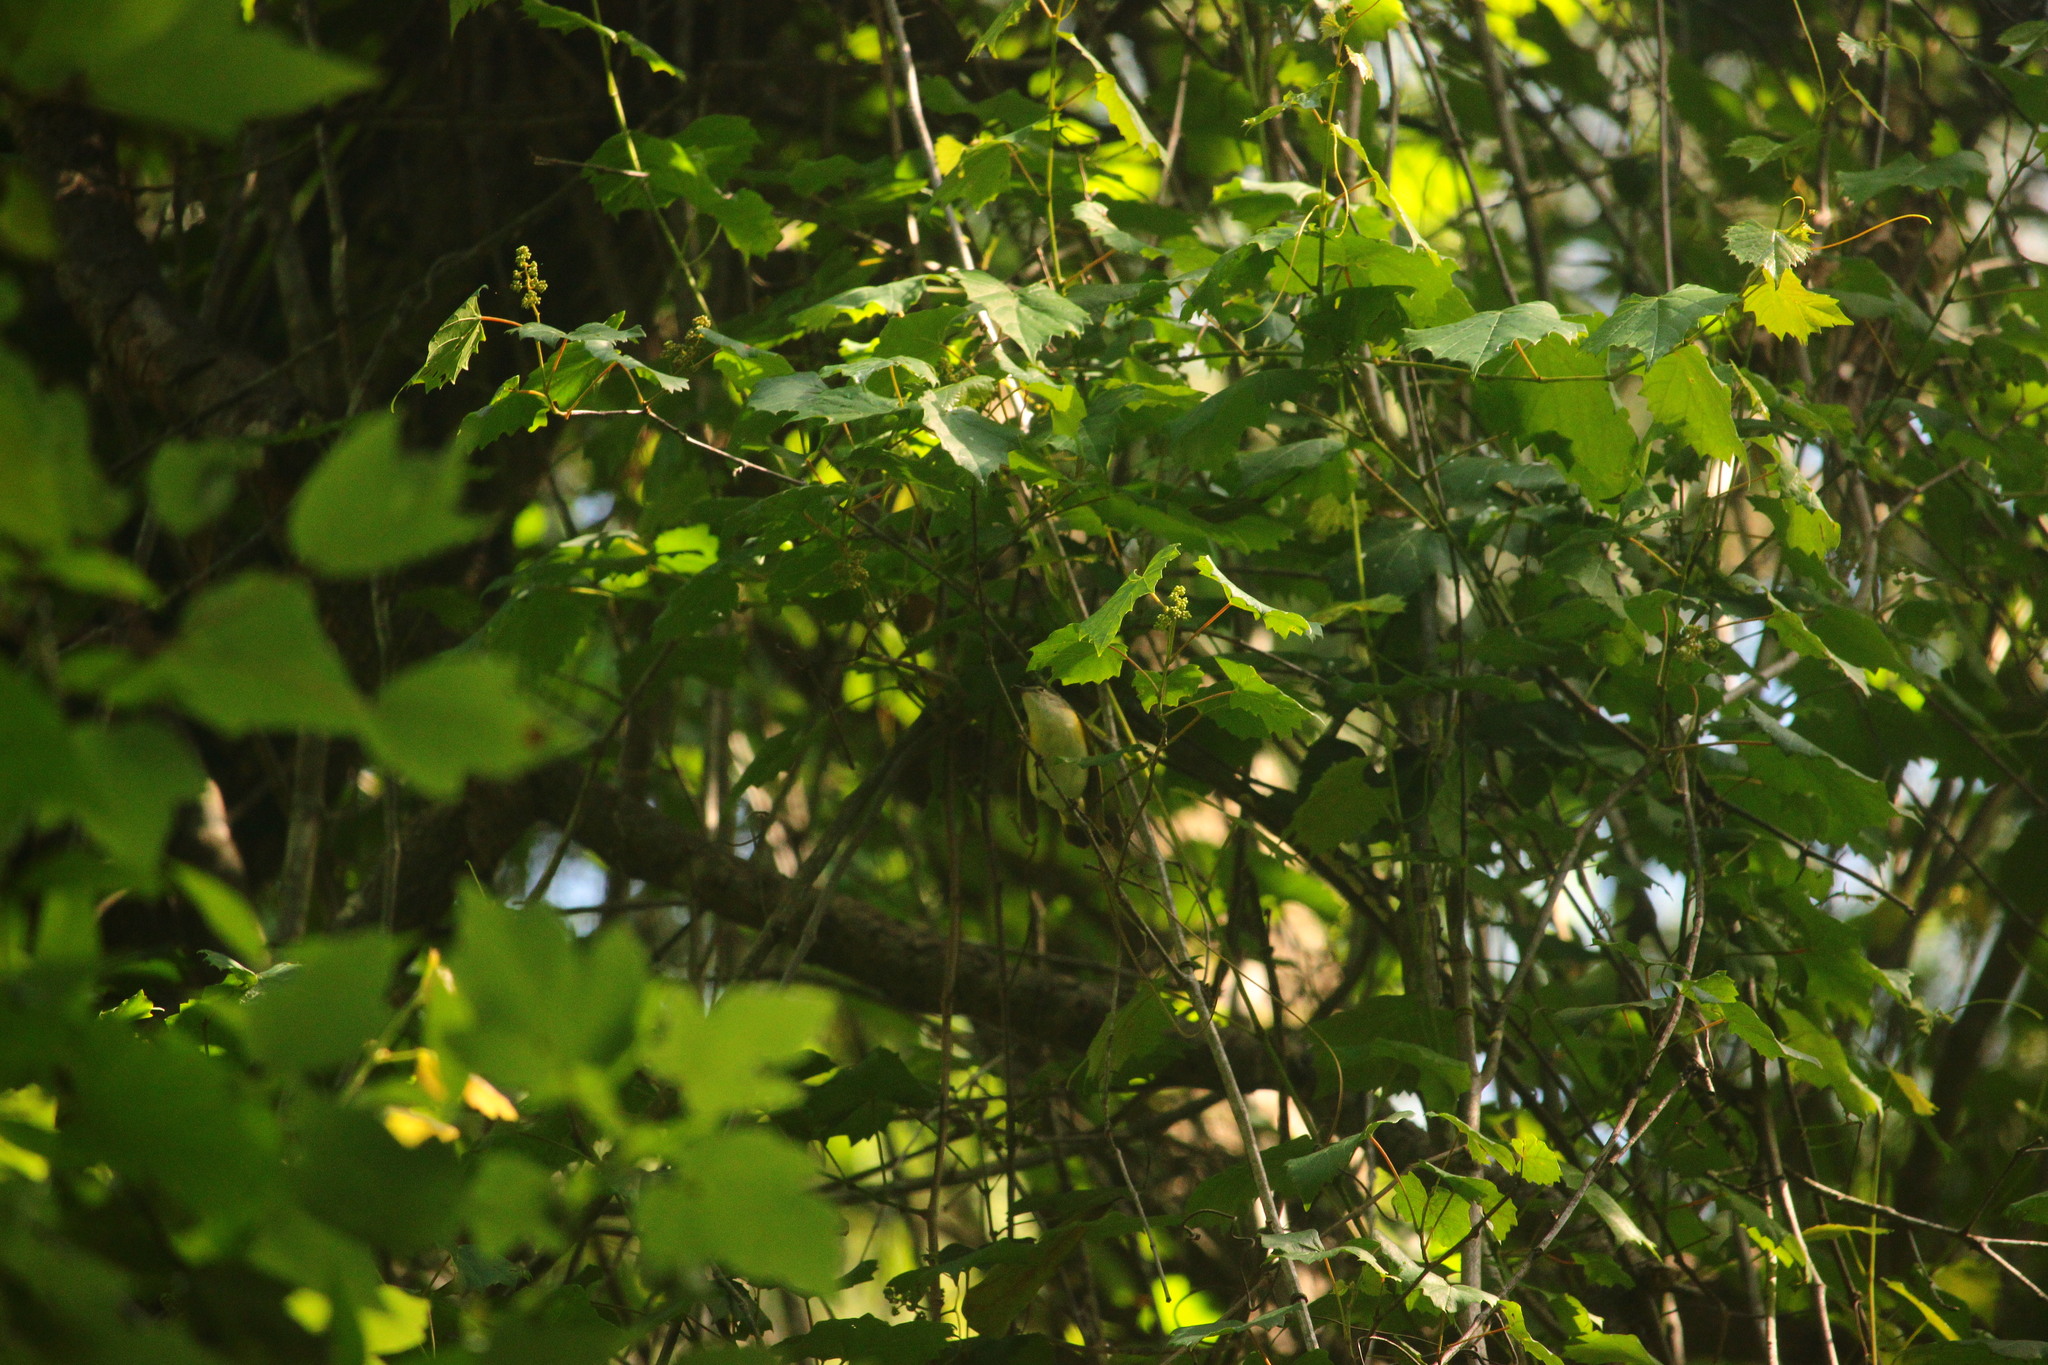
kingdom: Animalia
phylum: Chordata
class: Aves
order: Passeriformes
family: Parulidae
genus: Setophaga
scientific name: Setophaga ruticilla
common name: American redstart
